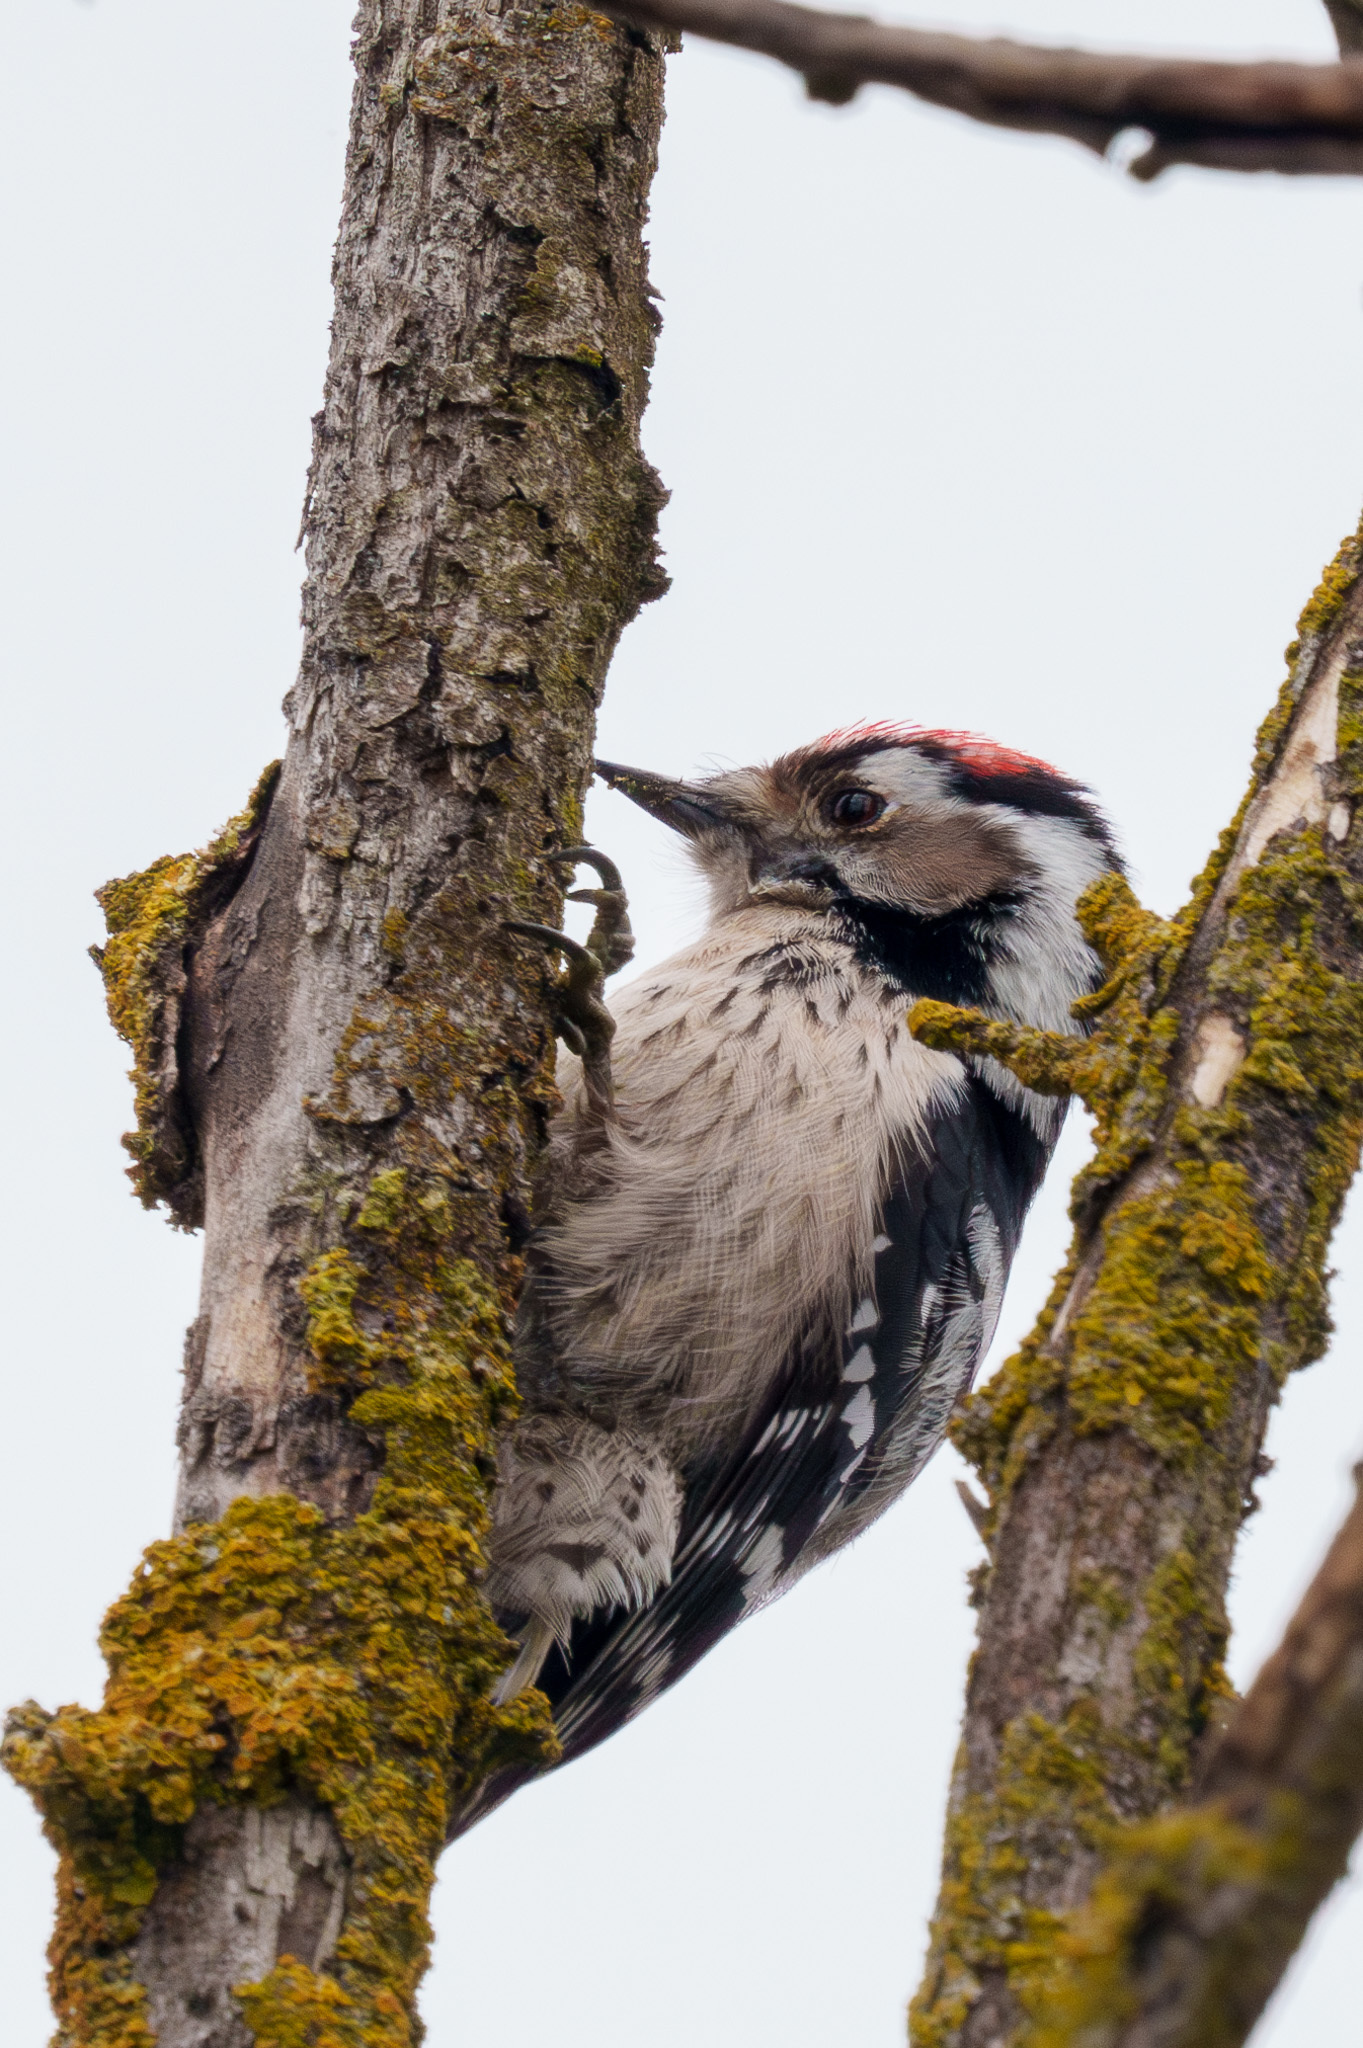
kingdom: Animalia
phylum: Chordata
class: Aves
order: Piciformes
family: Picidae
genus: Dryobates
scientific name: Dryobates minor
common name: Lesser spotted woodpecker
